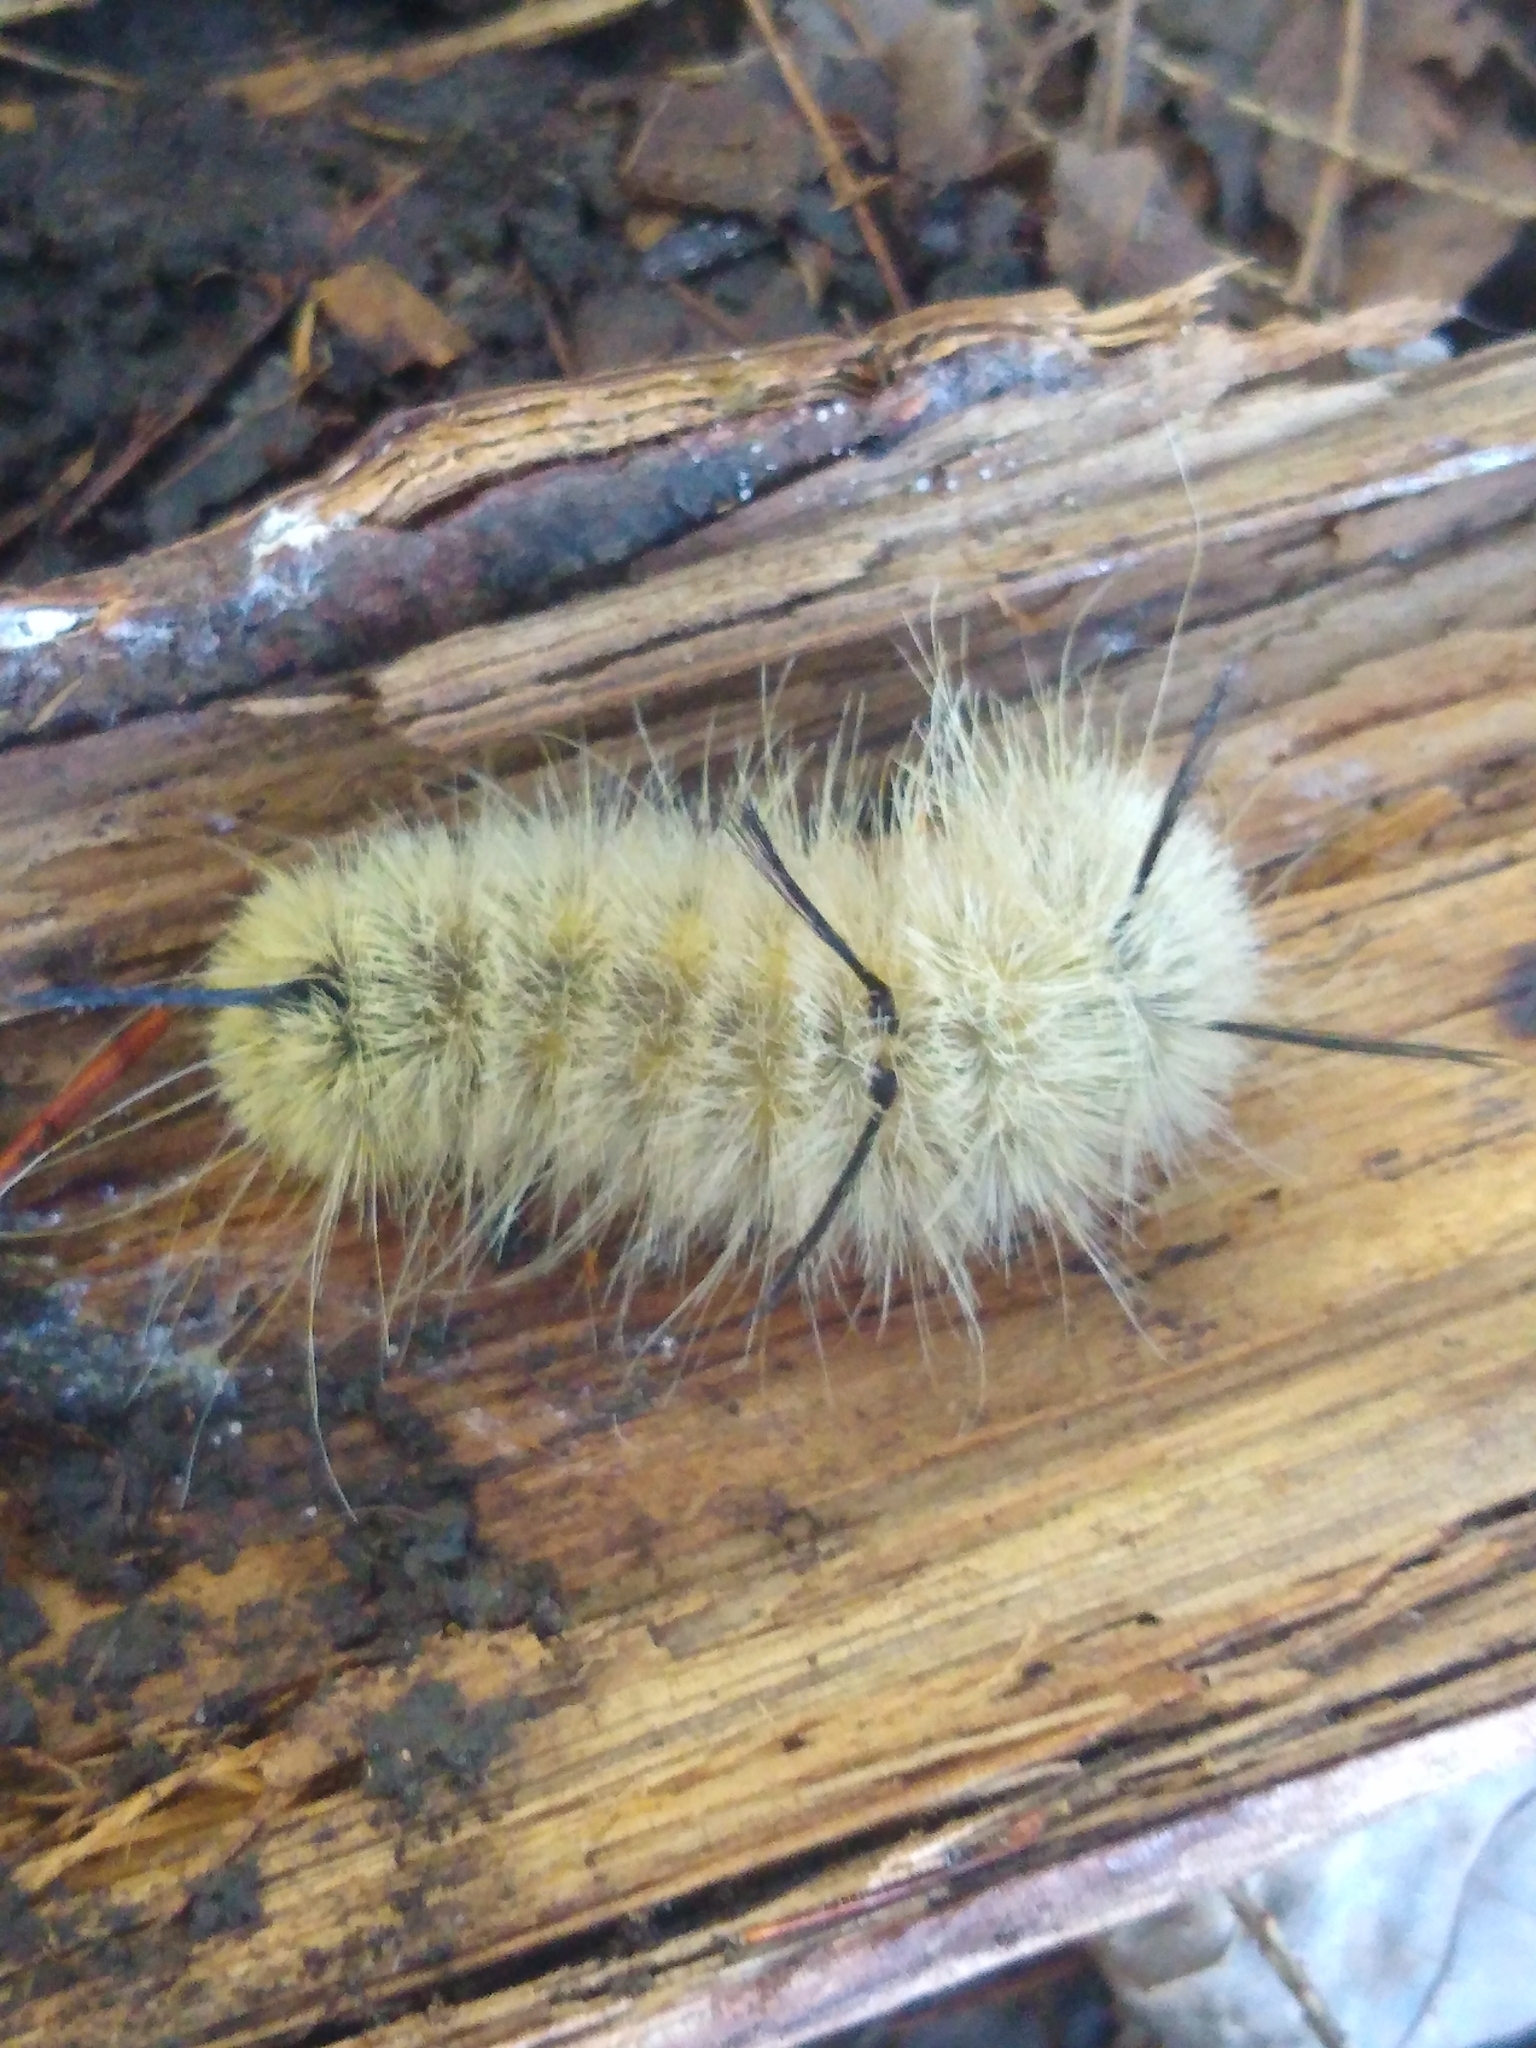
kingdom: Animalia
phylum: Arthropoda
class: Insecta
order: Lepidoptera
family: Erebidae
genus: Halysidota
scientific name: Halysidota tessellaris
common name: Banded tussock moth
